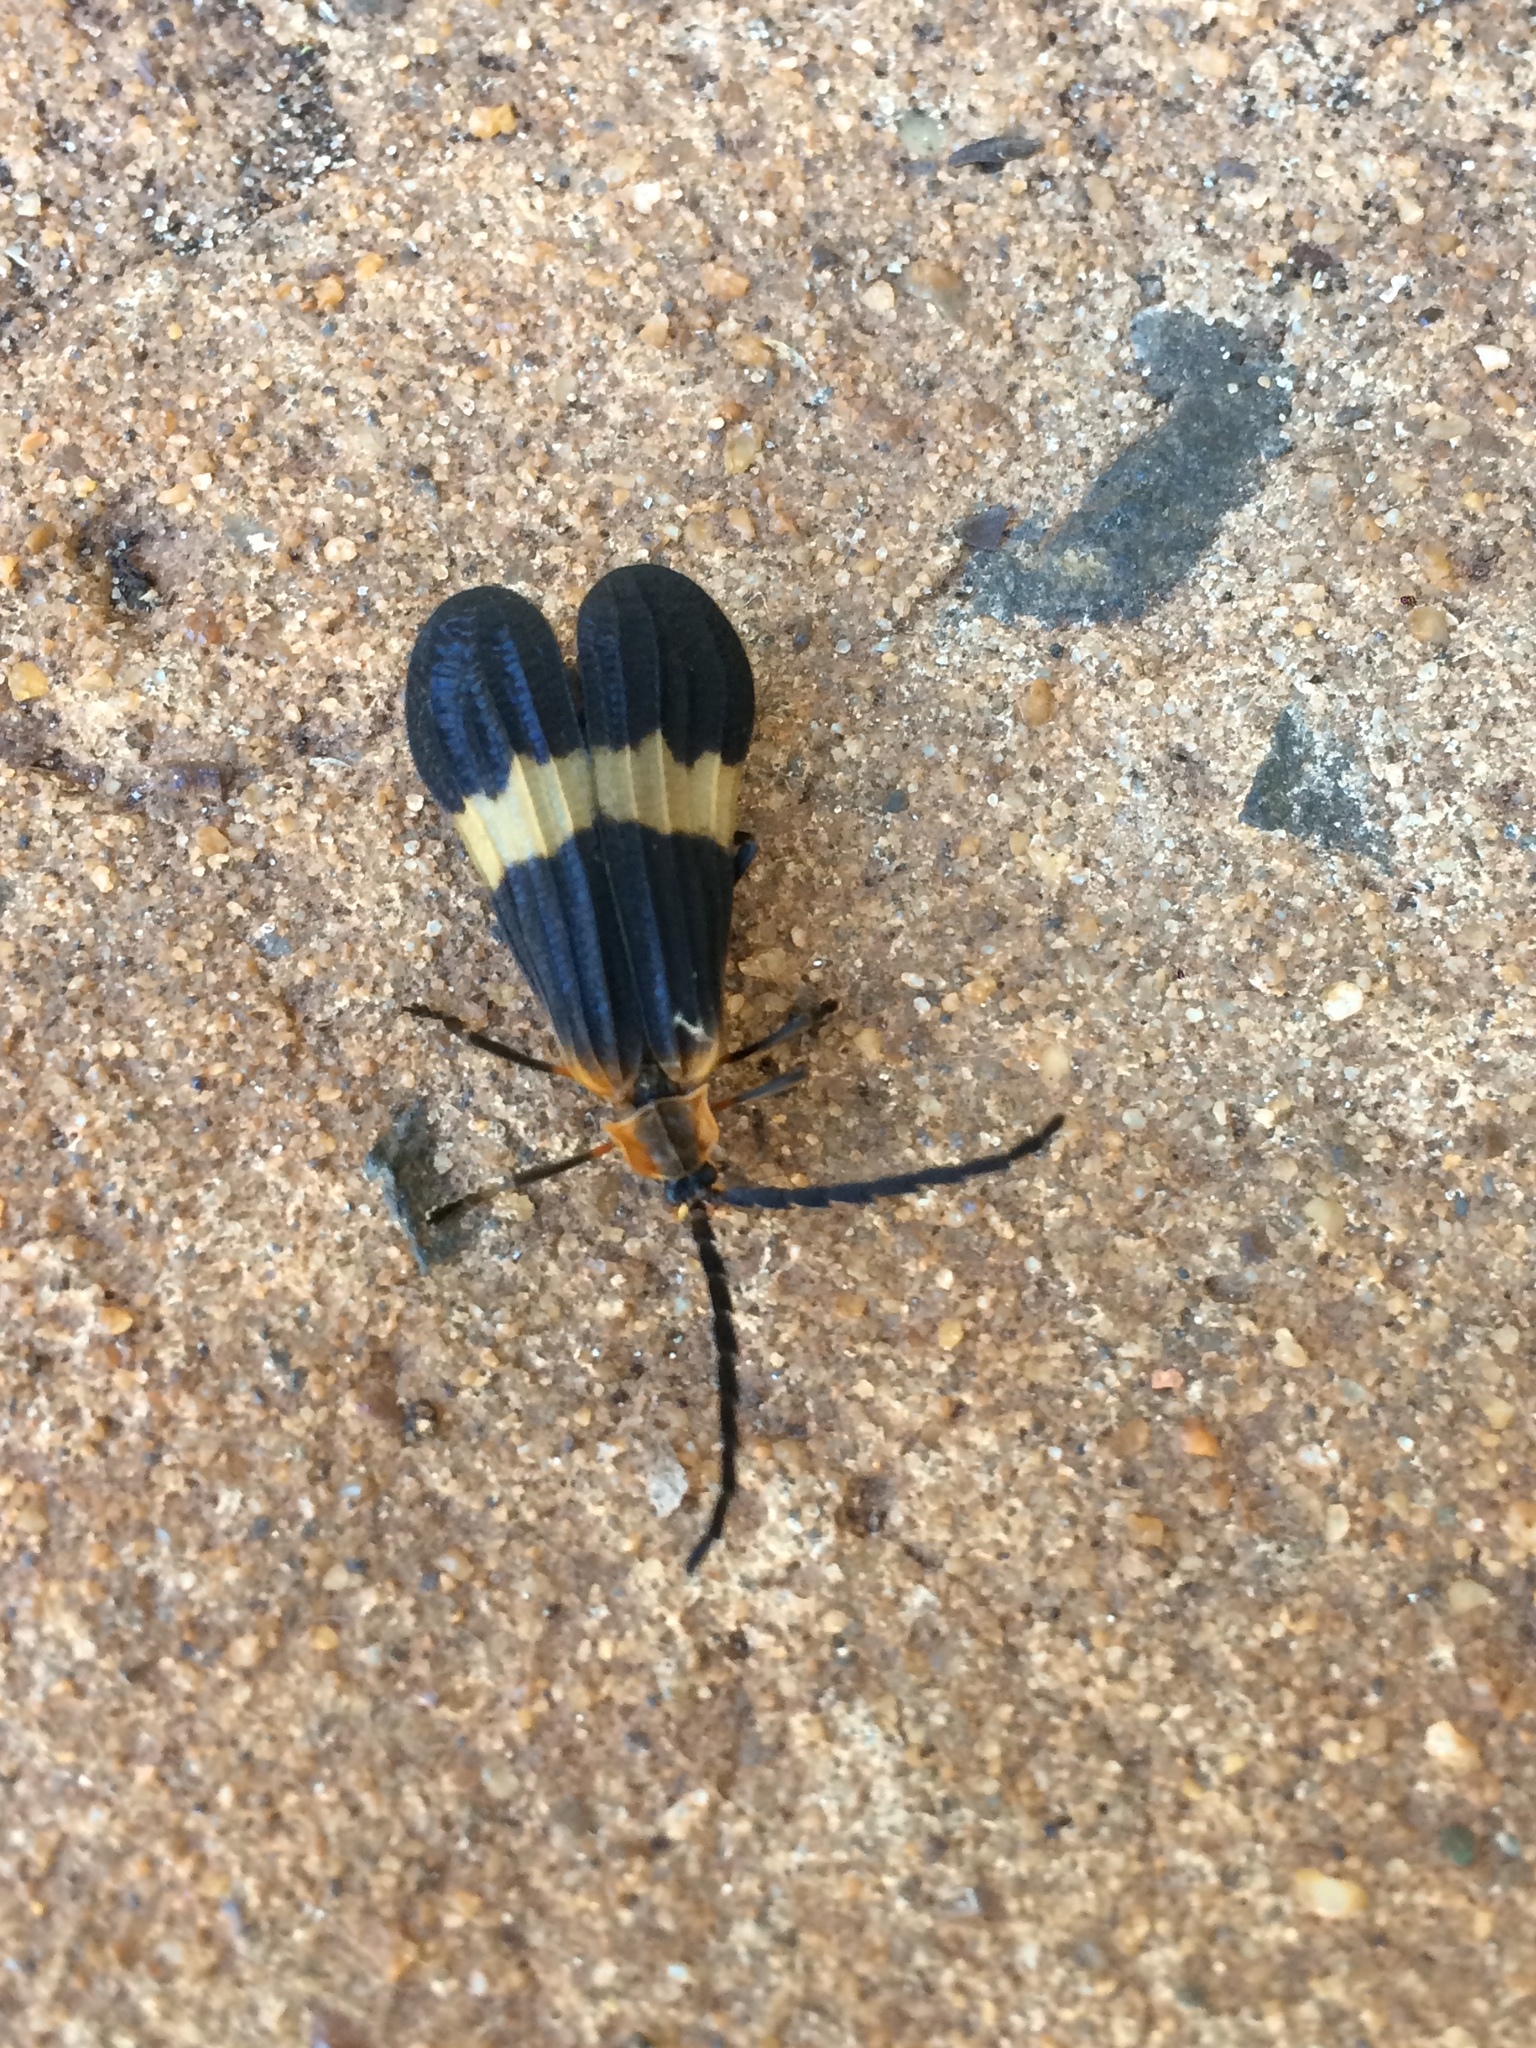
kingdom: Animalia
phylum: Arthropoda
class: Insecta
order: Coleoptera
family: Lycidae
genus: Calopteron
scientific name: Calopteron tropicum
